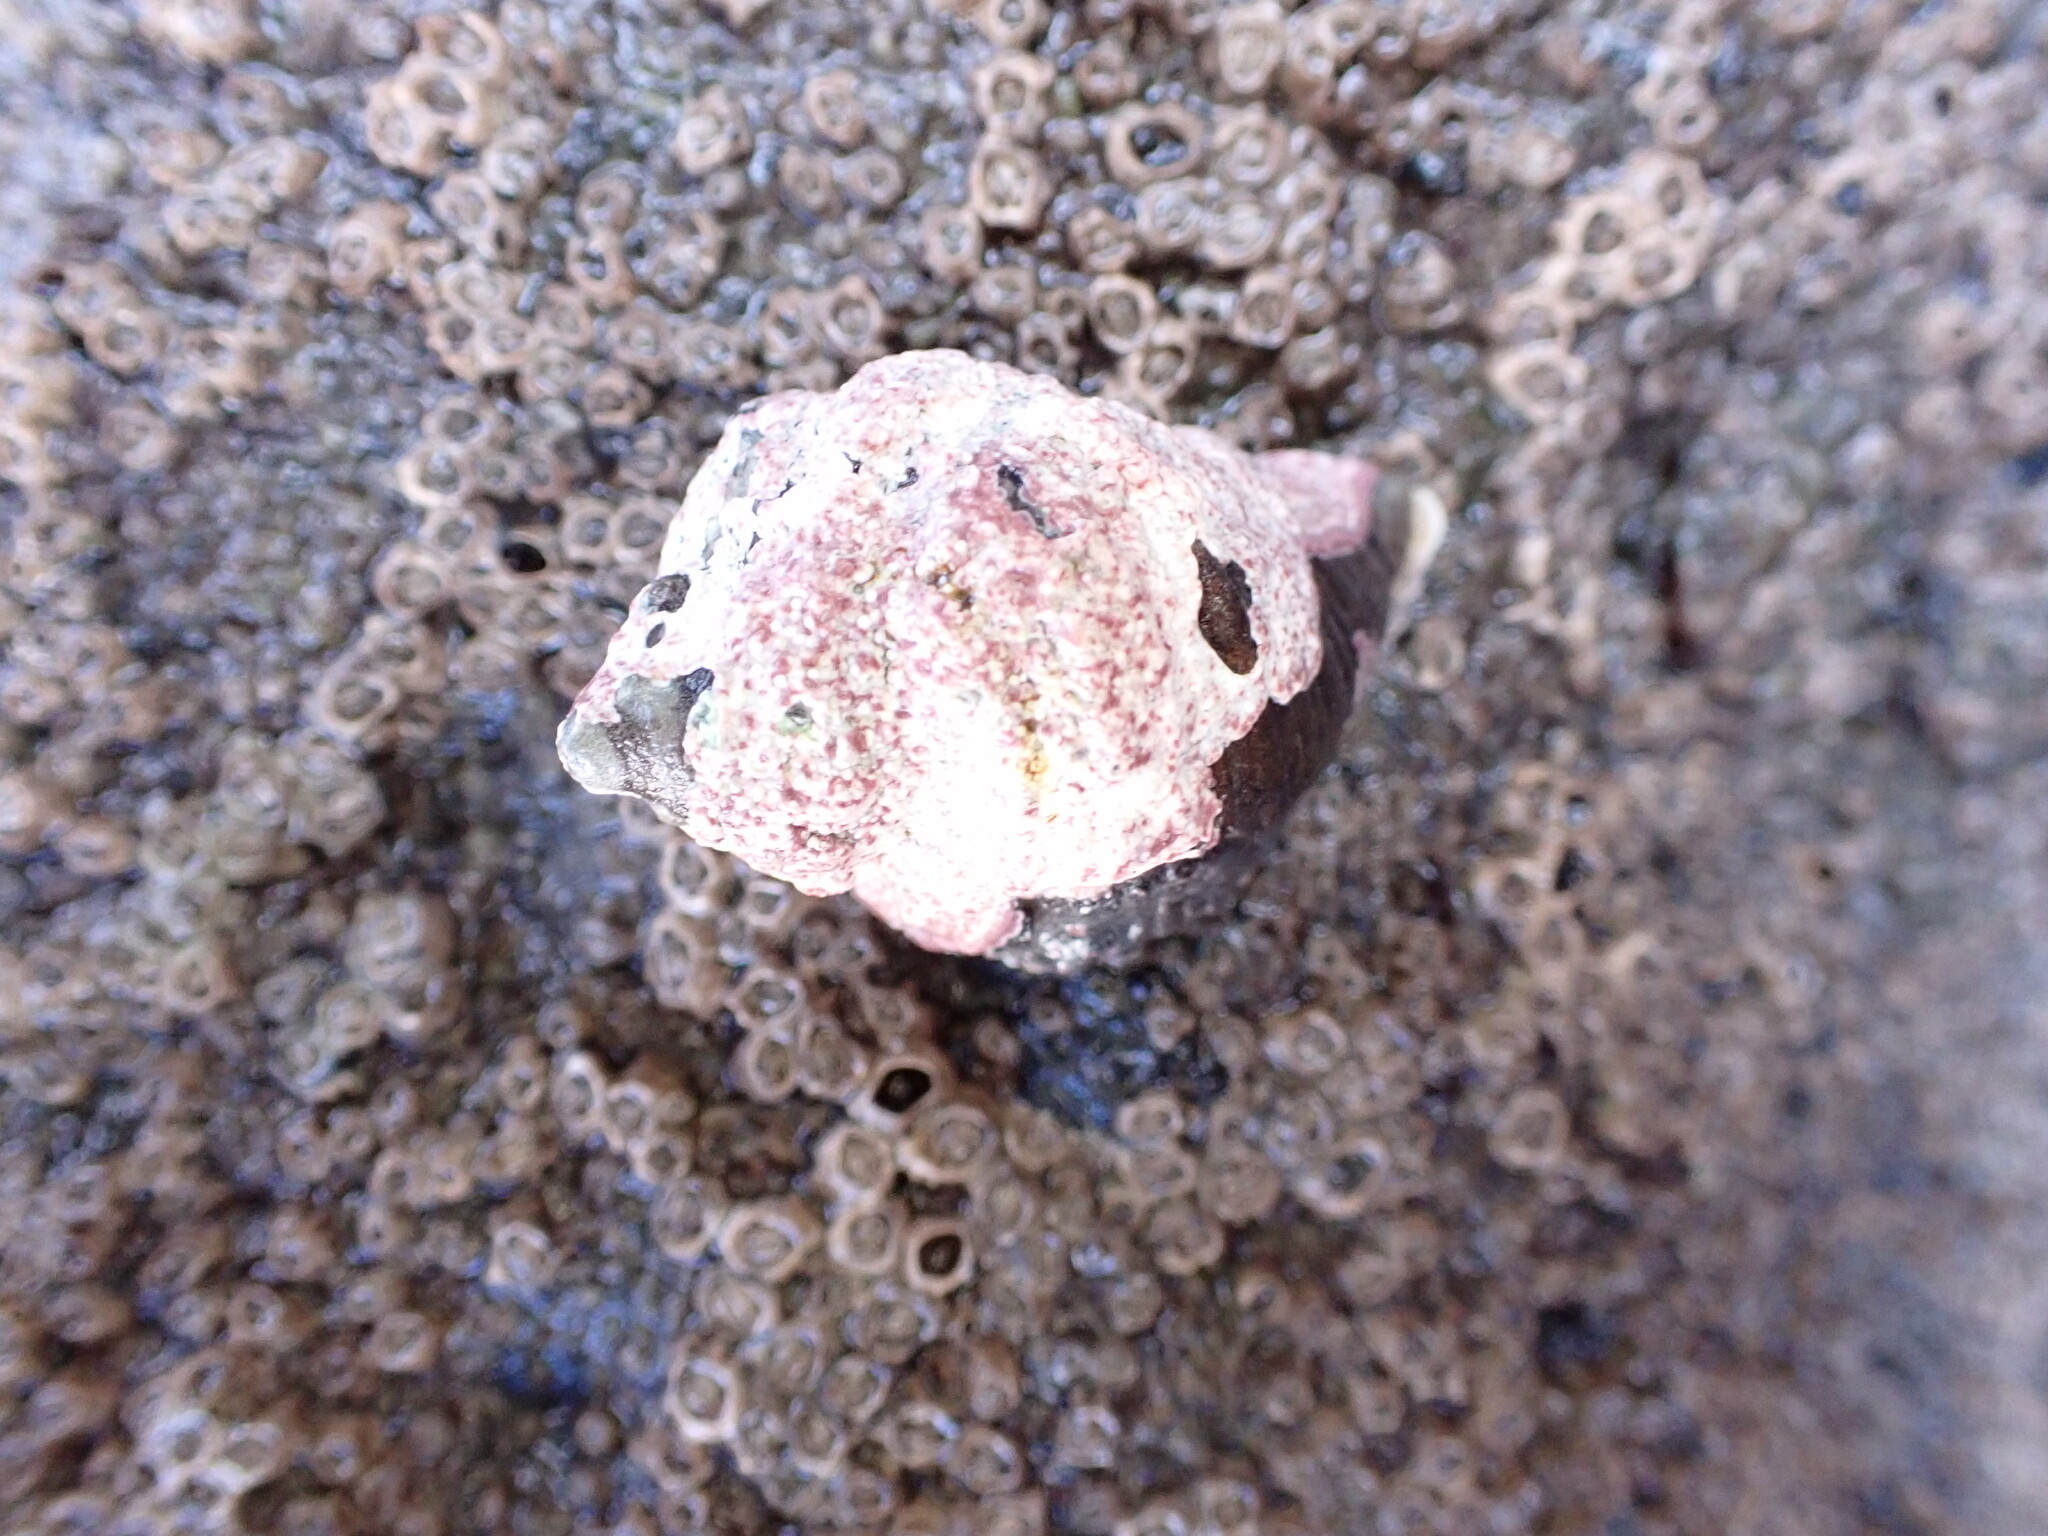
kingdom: Animalia
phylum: Mollusca
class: Gastropoda
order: Neogastropoda
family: Muricidae
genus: Haustrum
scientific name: Haustrum haustorium
